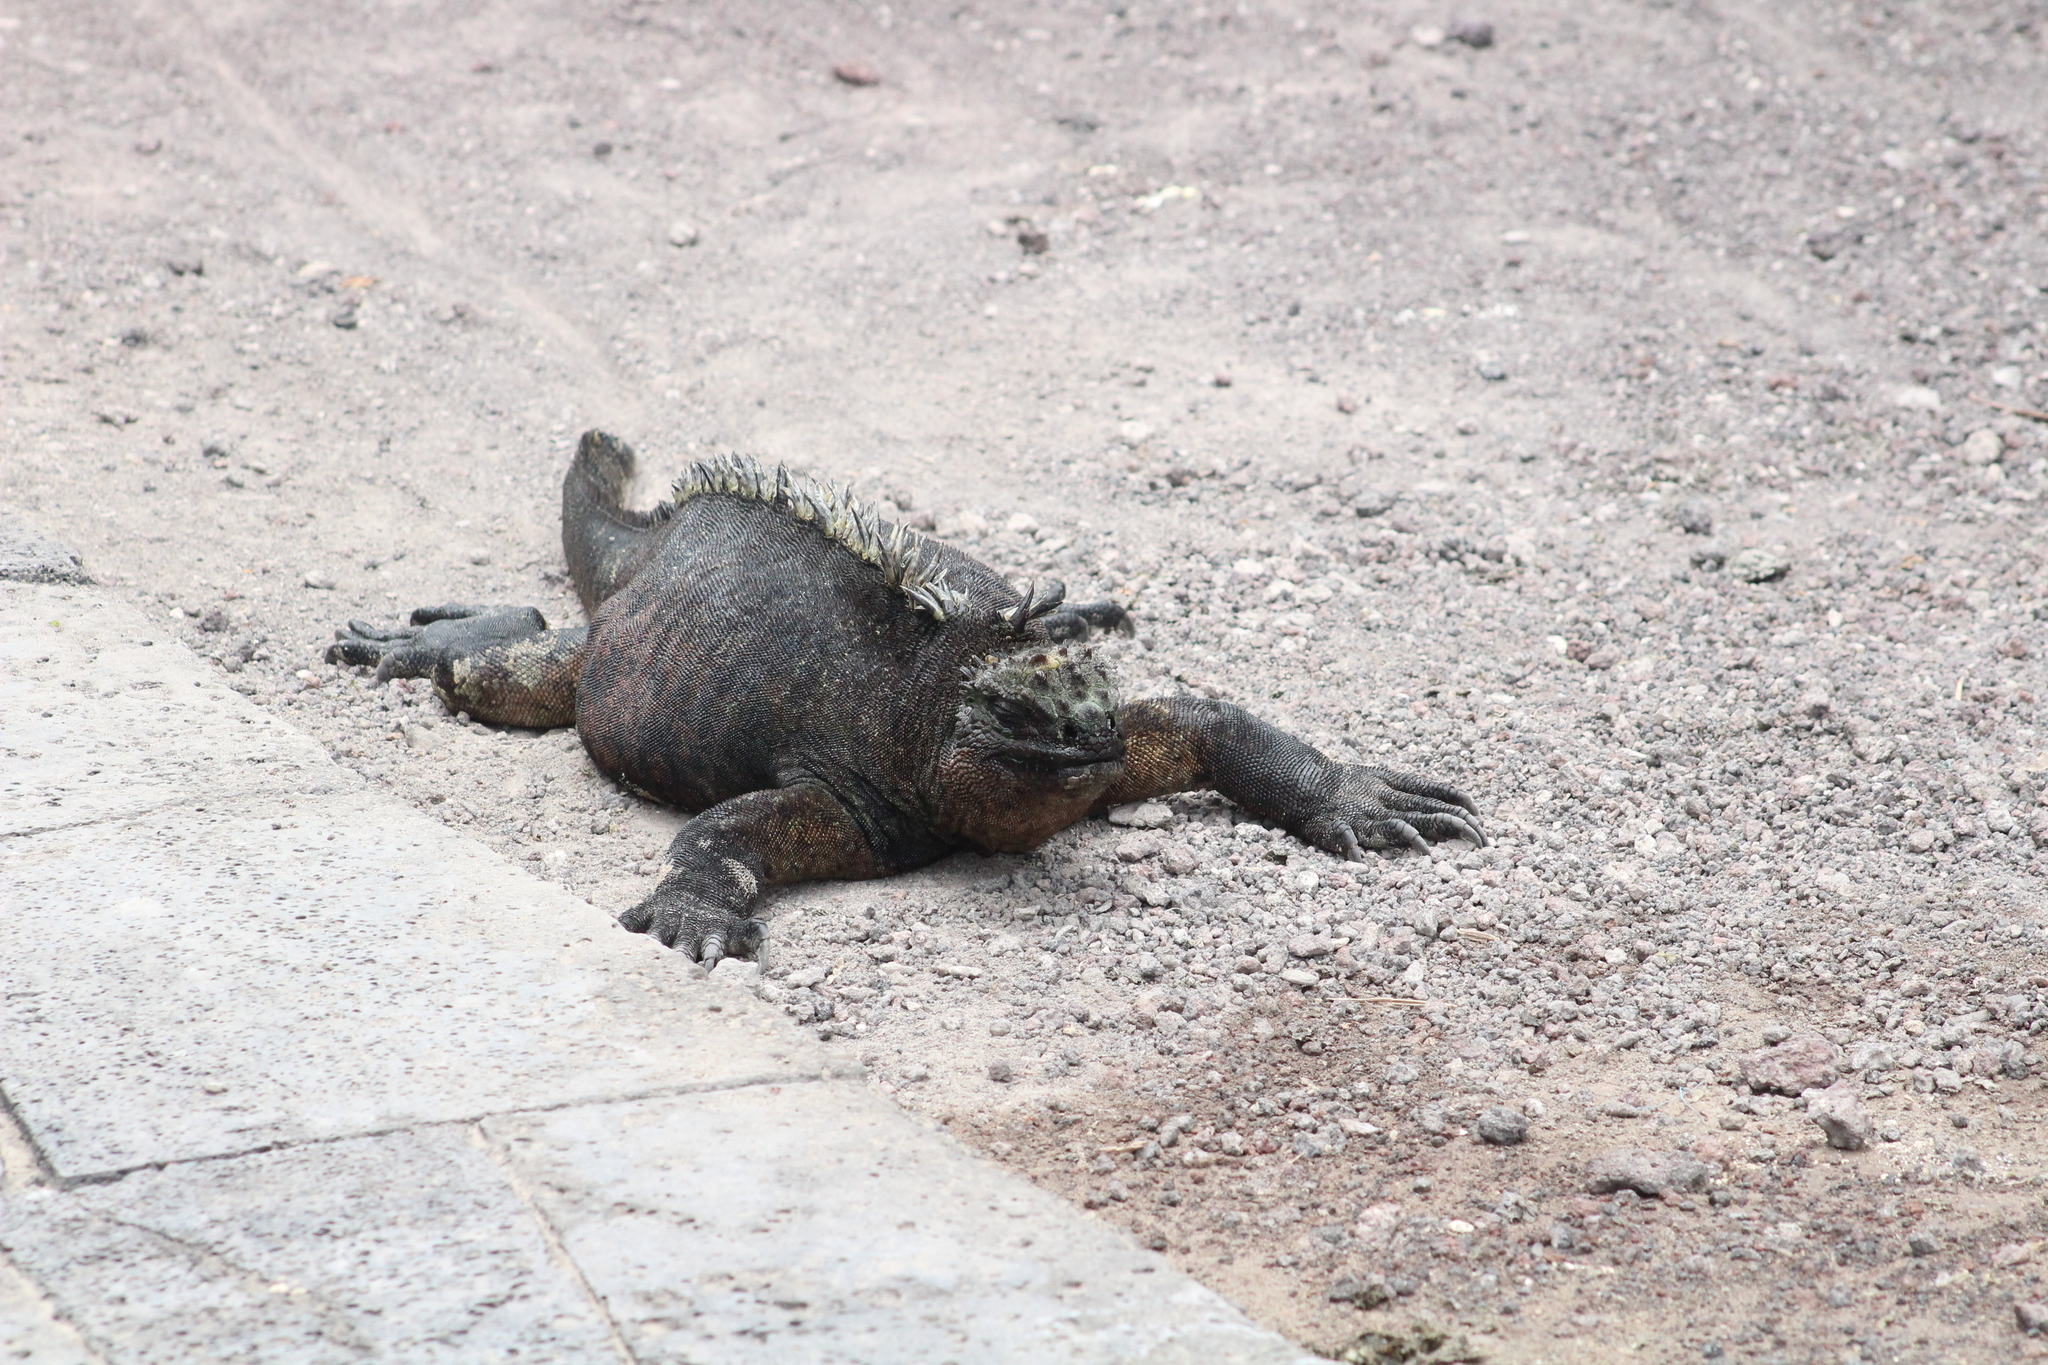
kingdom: Animalia
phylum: Chordata
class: Squamata
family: Iguanidae
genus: Amblyrhynchus
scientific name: Amblyrhynchus cristatus
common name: Marine iguana
